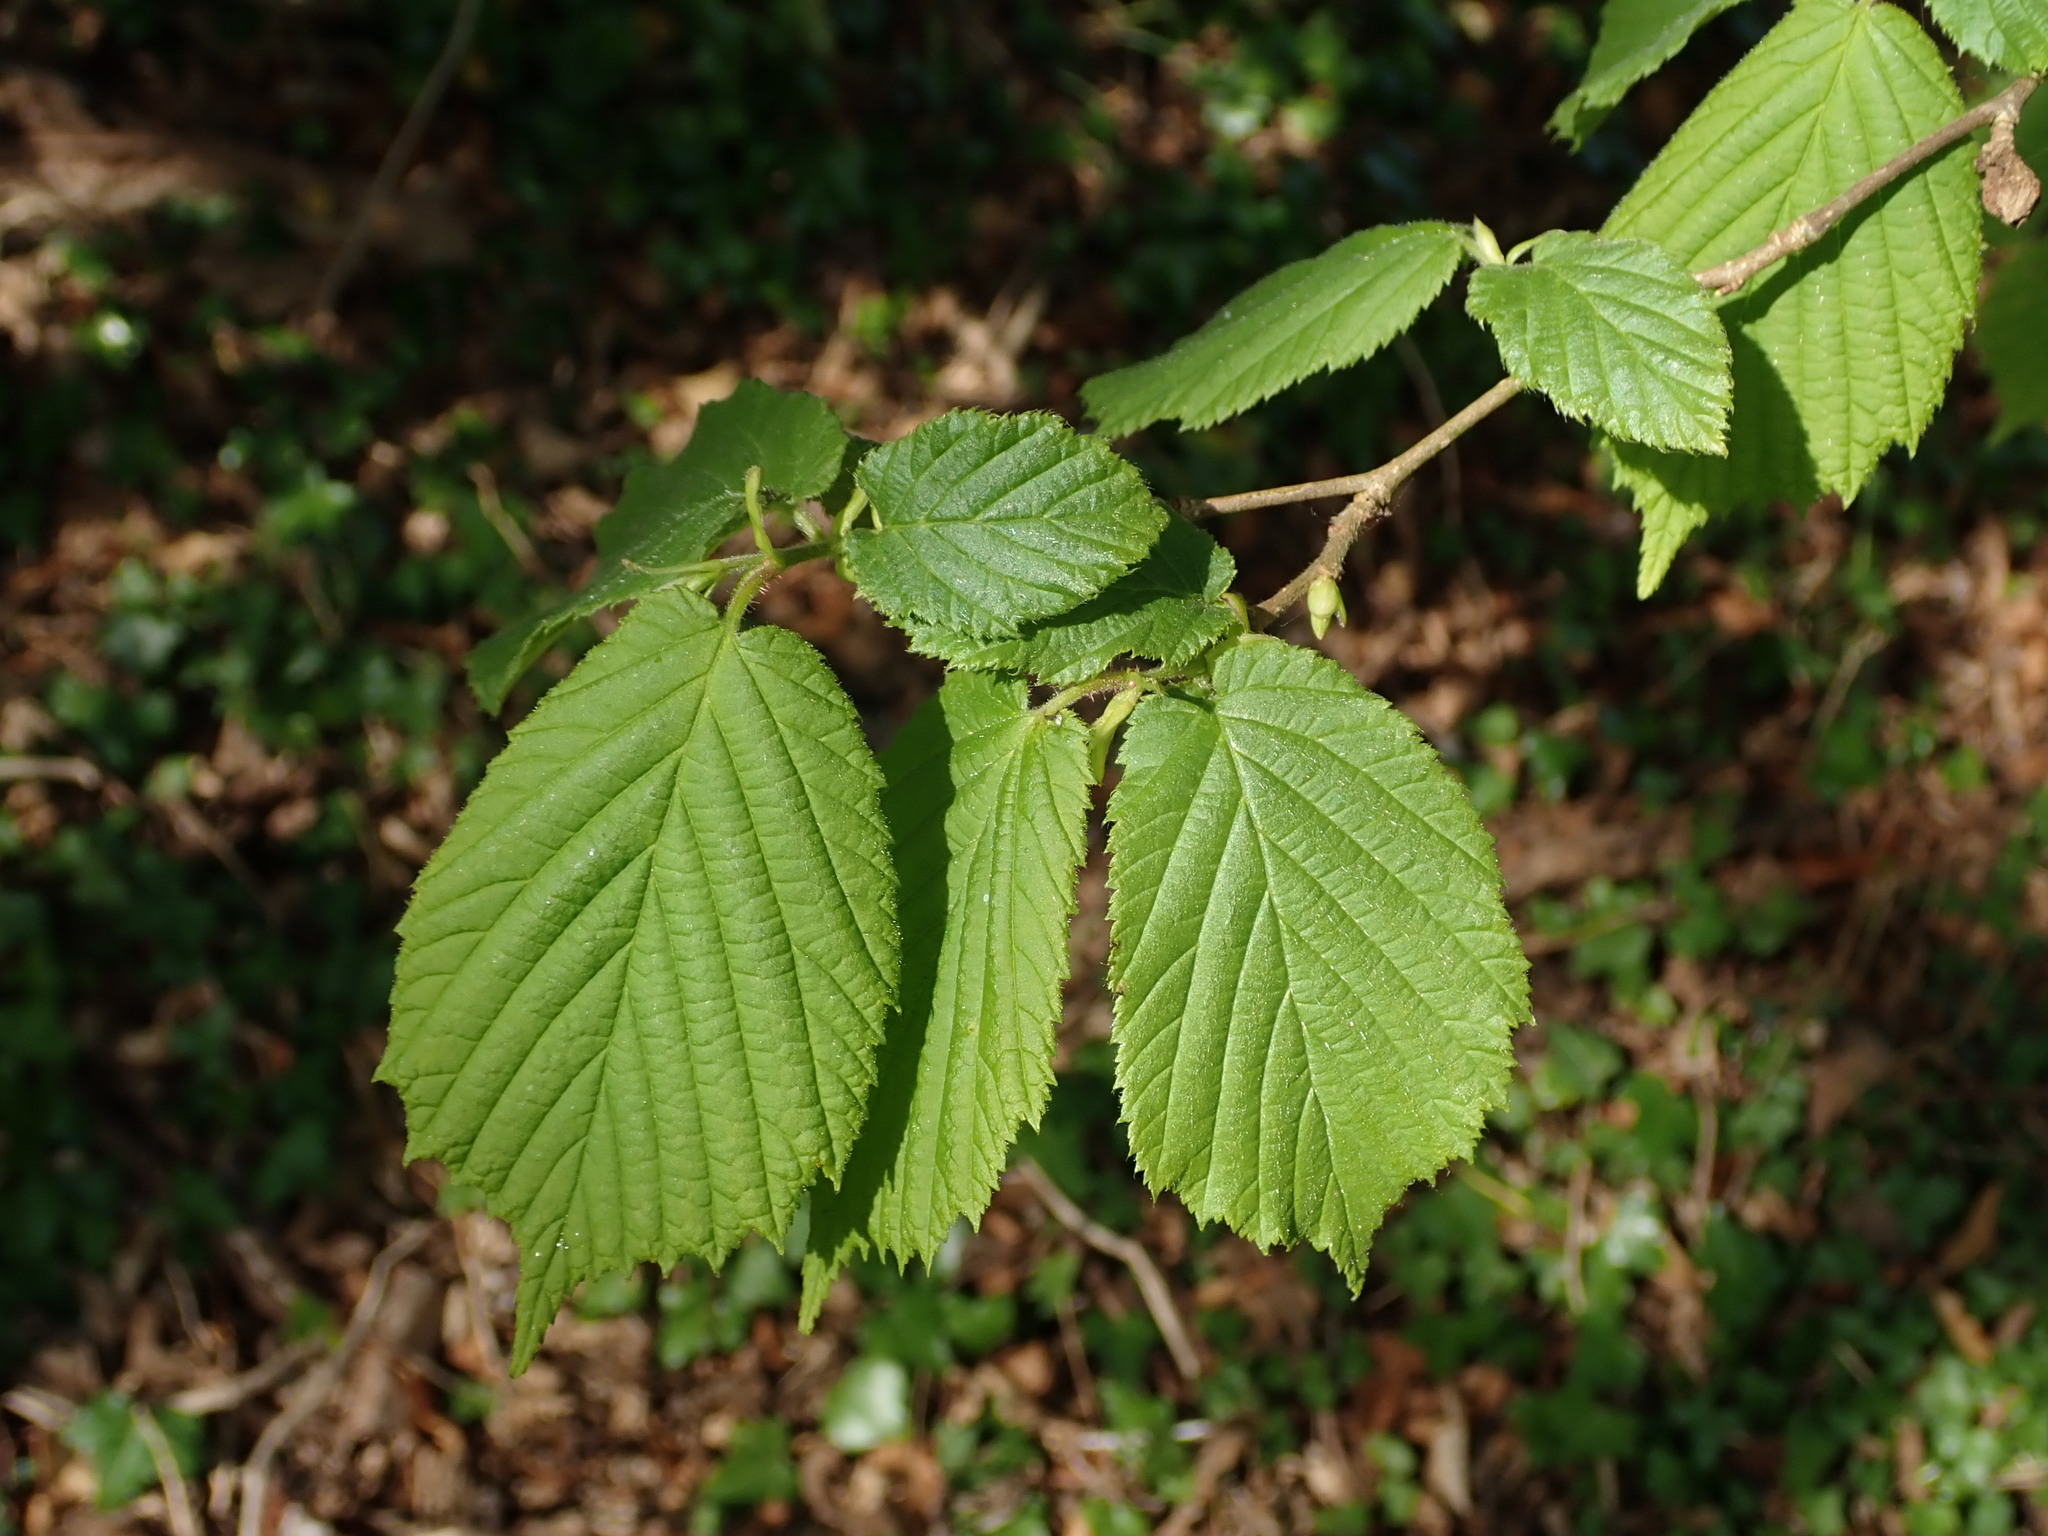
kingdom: Plantae
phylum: Tracheophyta
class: Magnoliopsida
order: Fagales
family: Betulaceae
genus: Corylus
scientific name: Corylus avellana
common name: European hazel
